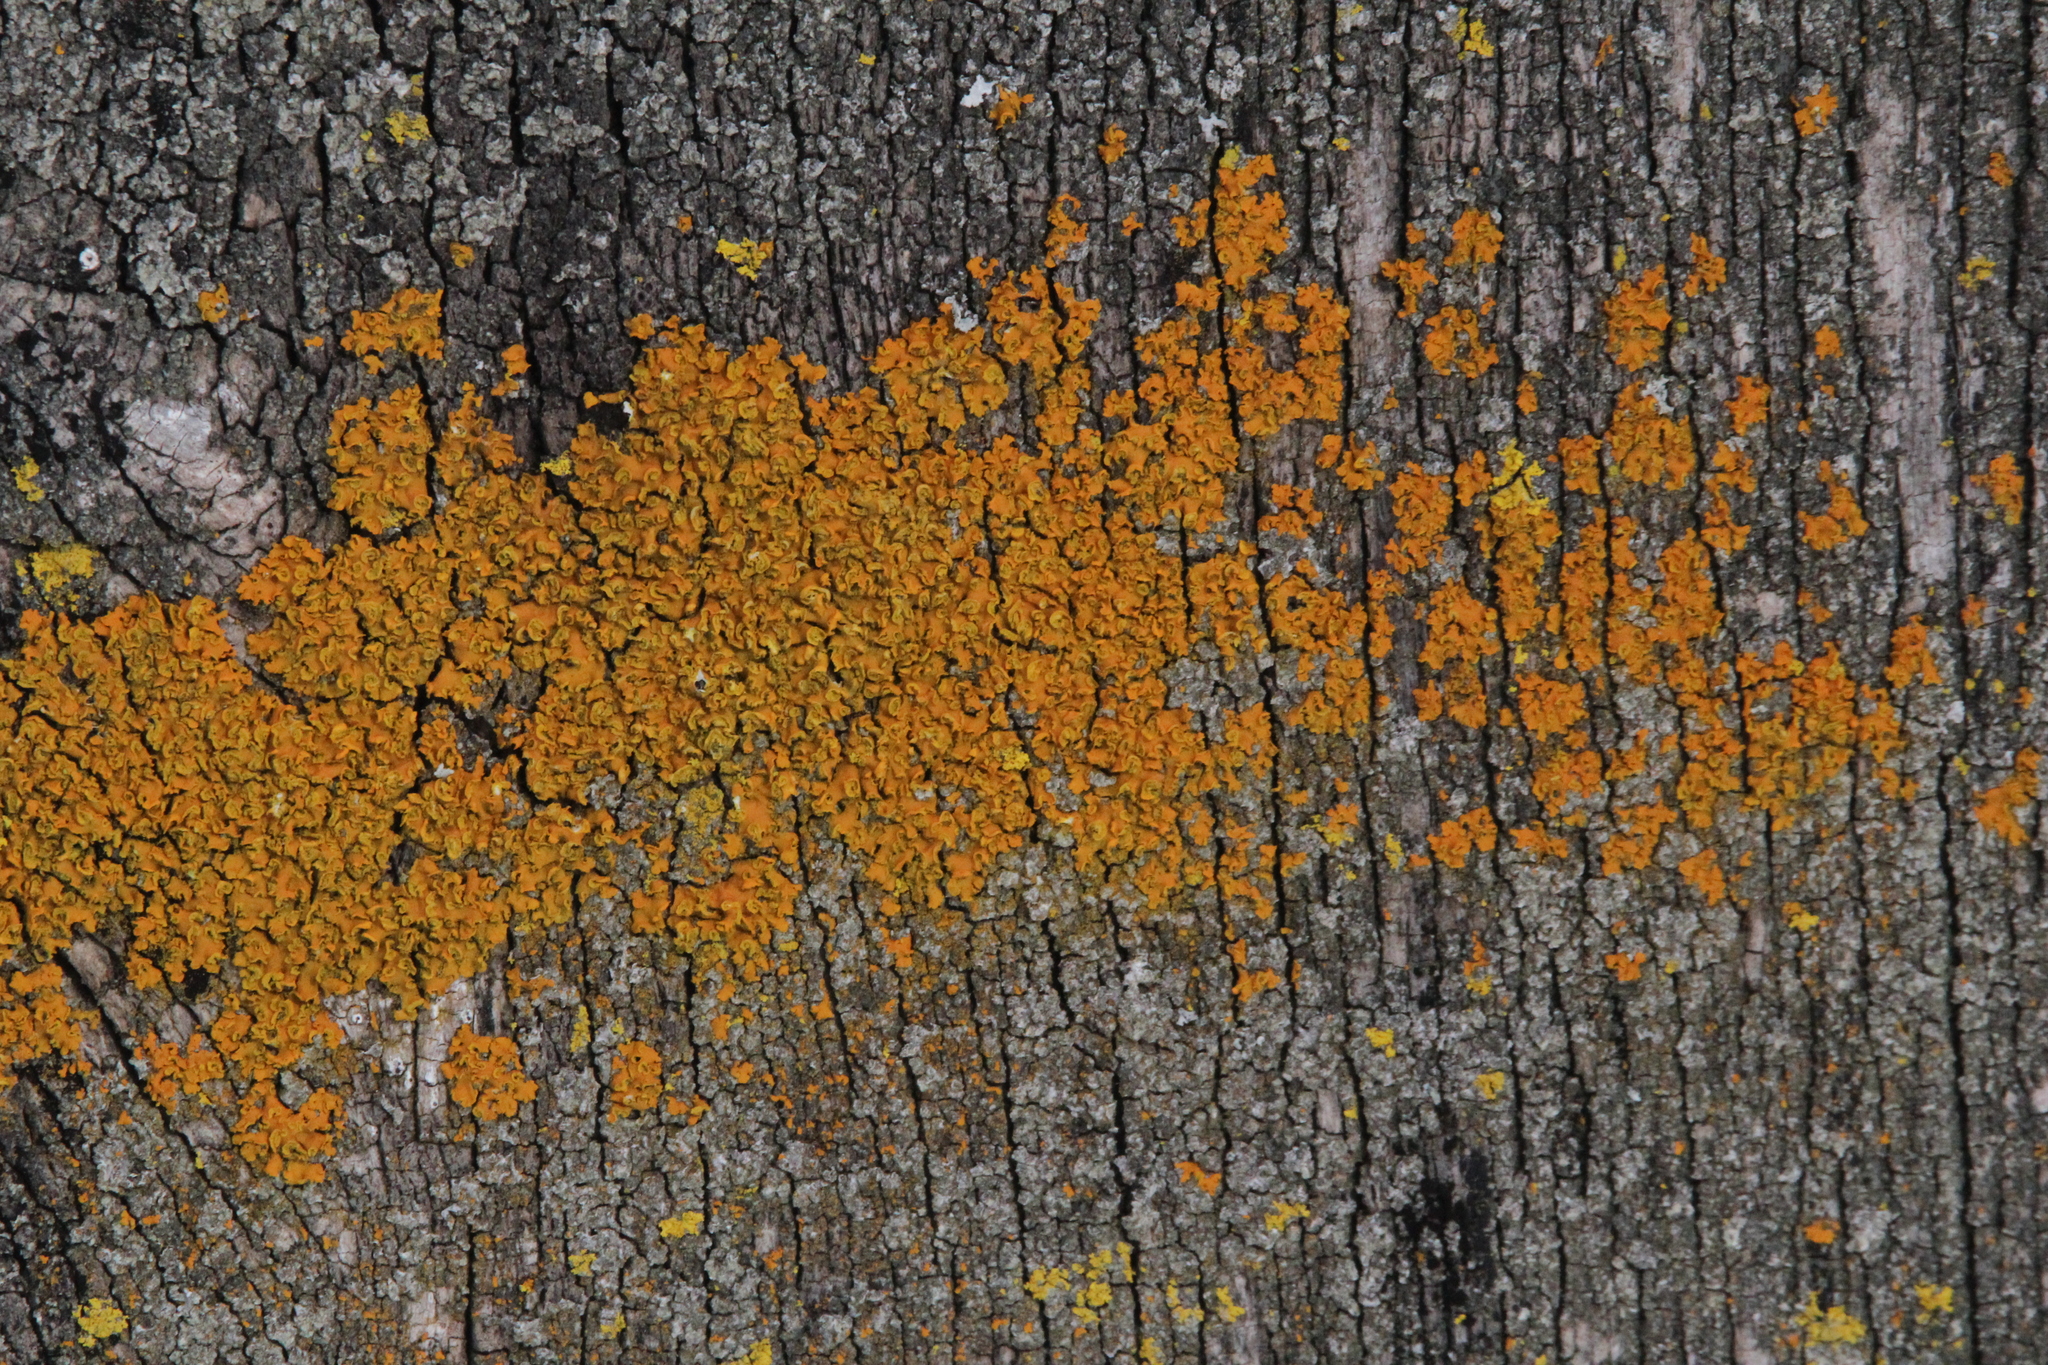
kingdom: Fungi
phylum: Ascomycota
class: Lecanoromycetes
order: Teloschistales
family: Teloschistaceae
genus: Oxneria
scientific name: Oxneria fallax
